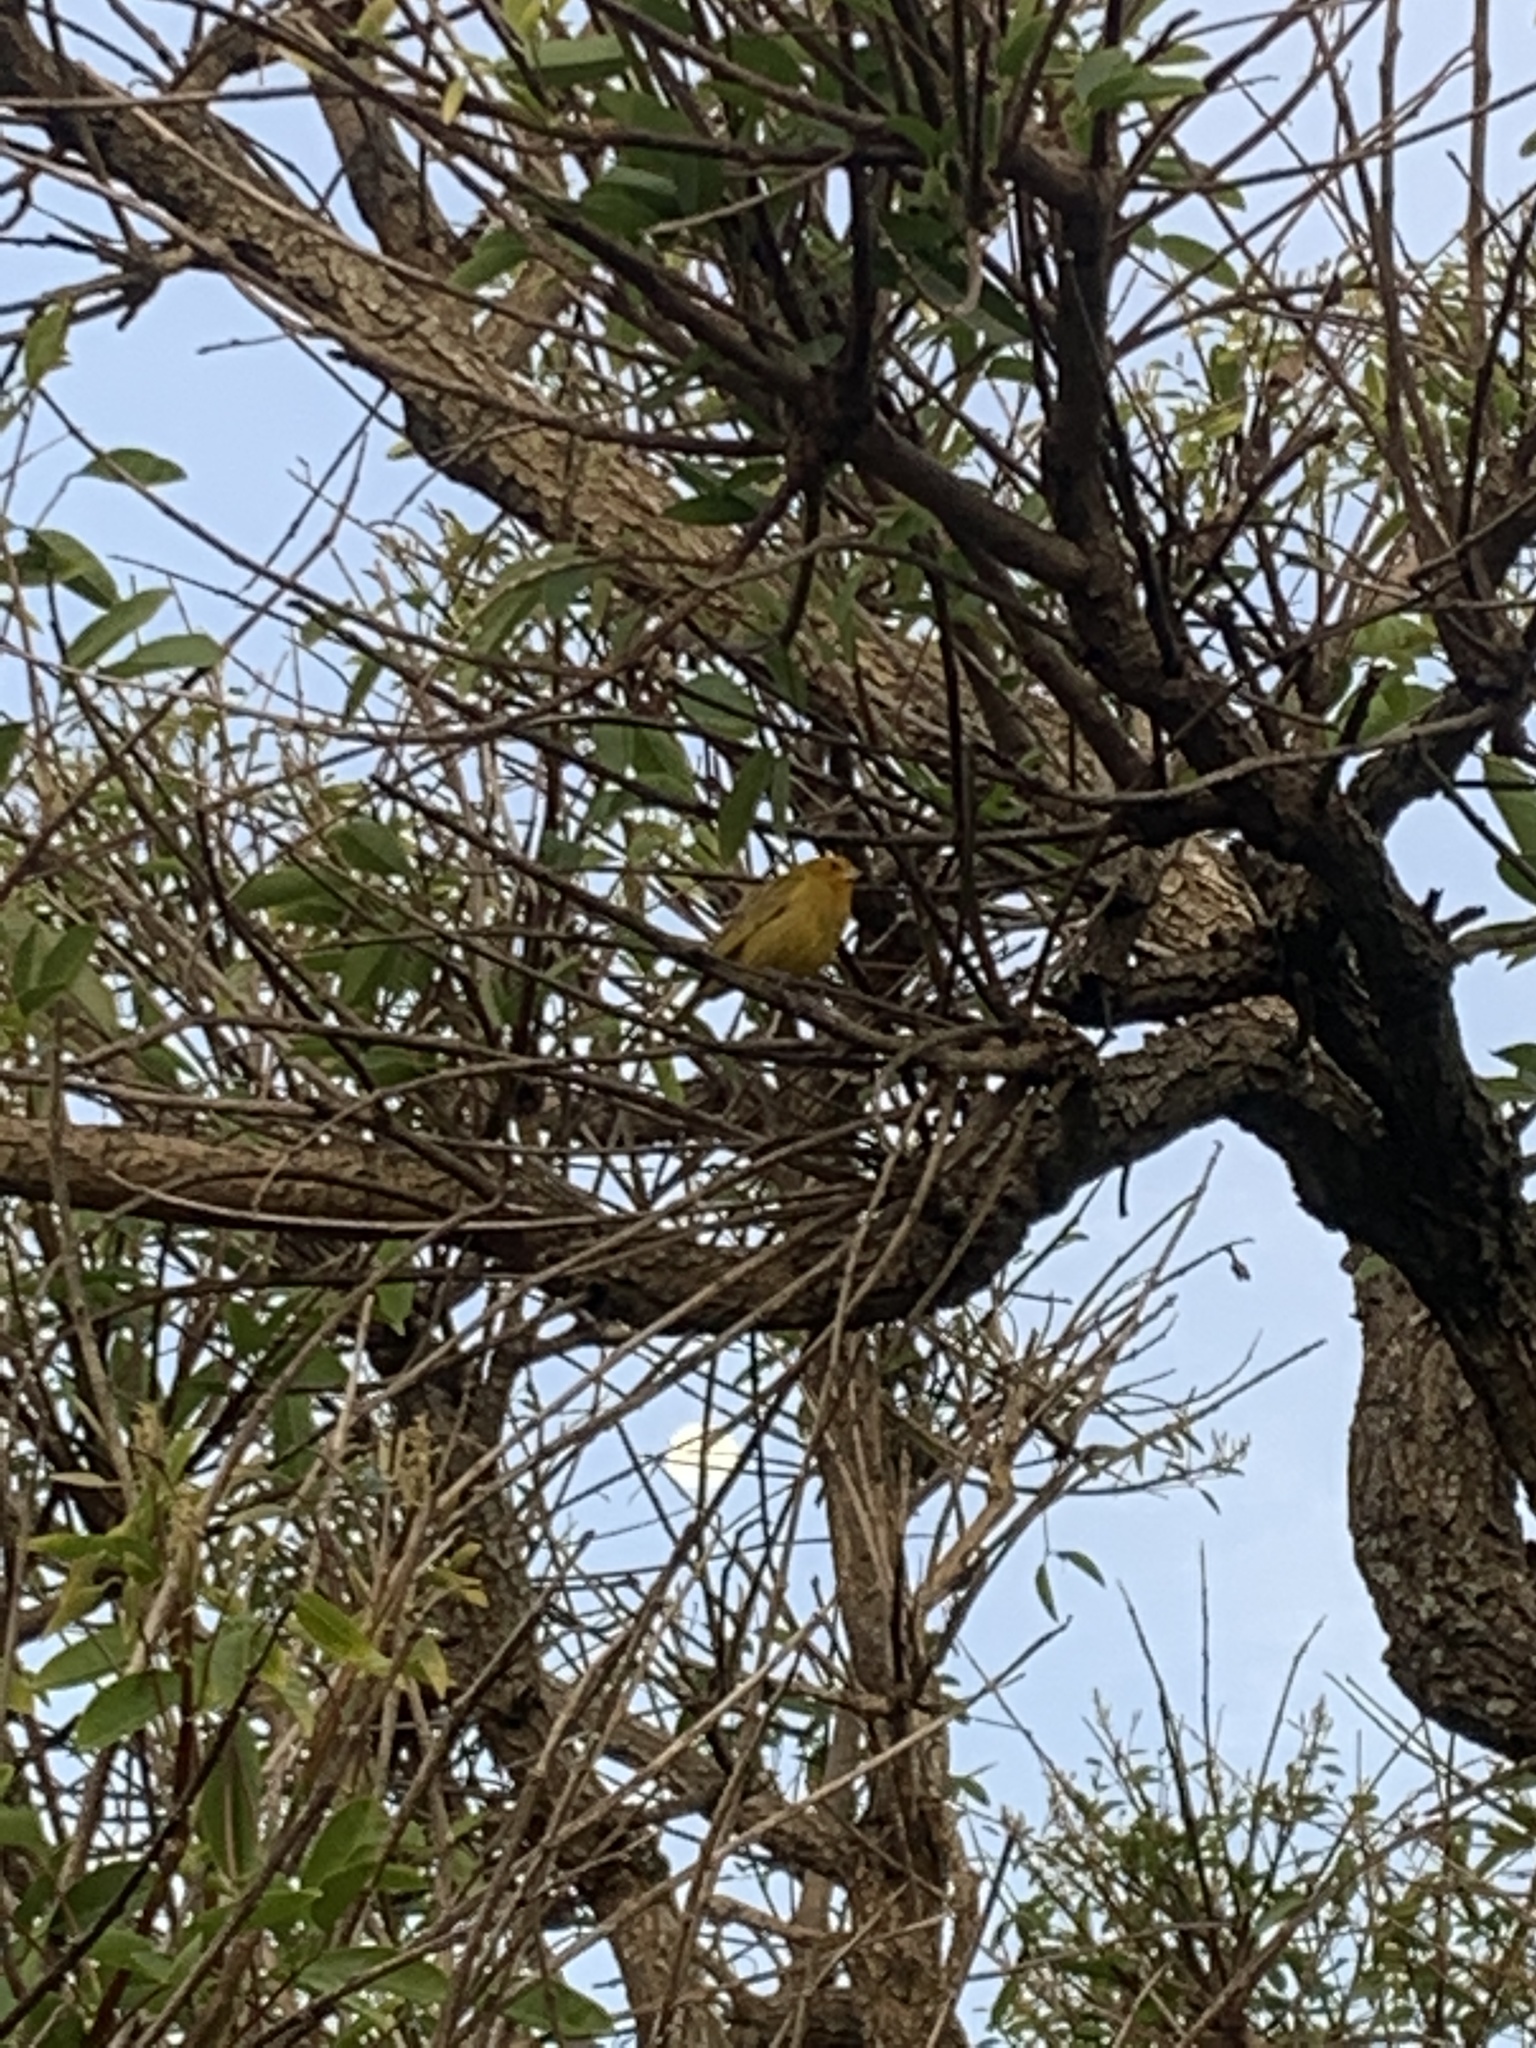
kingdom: Animalia
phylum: Chordata
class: Aves
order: Passeriformes
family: Thraupidae
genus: Sicalis
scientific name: Sicalis flaveola
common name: Saffron finch
